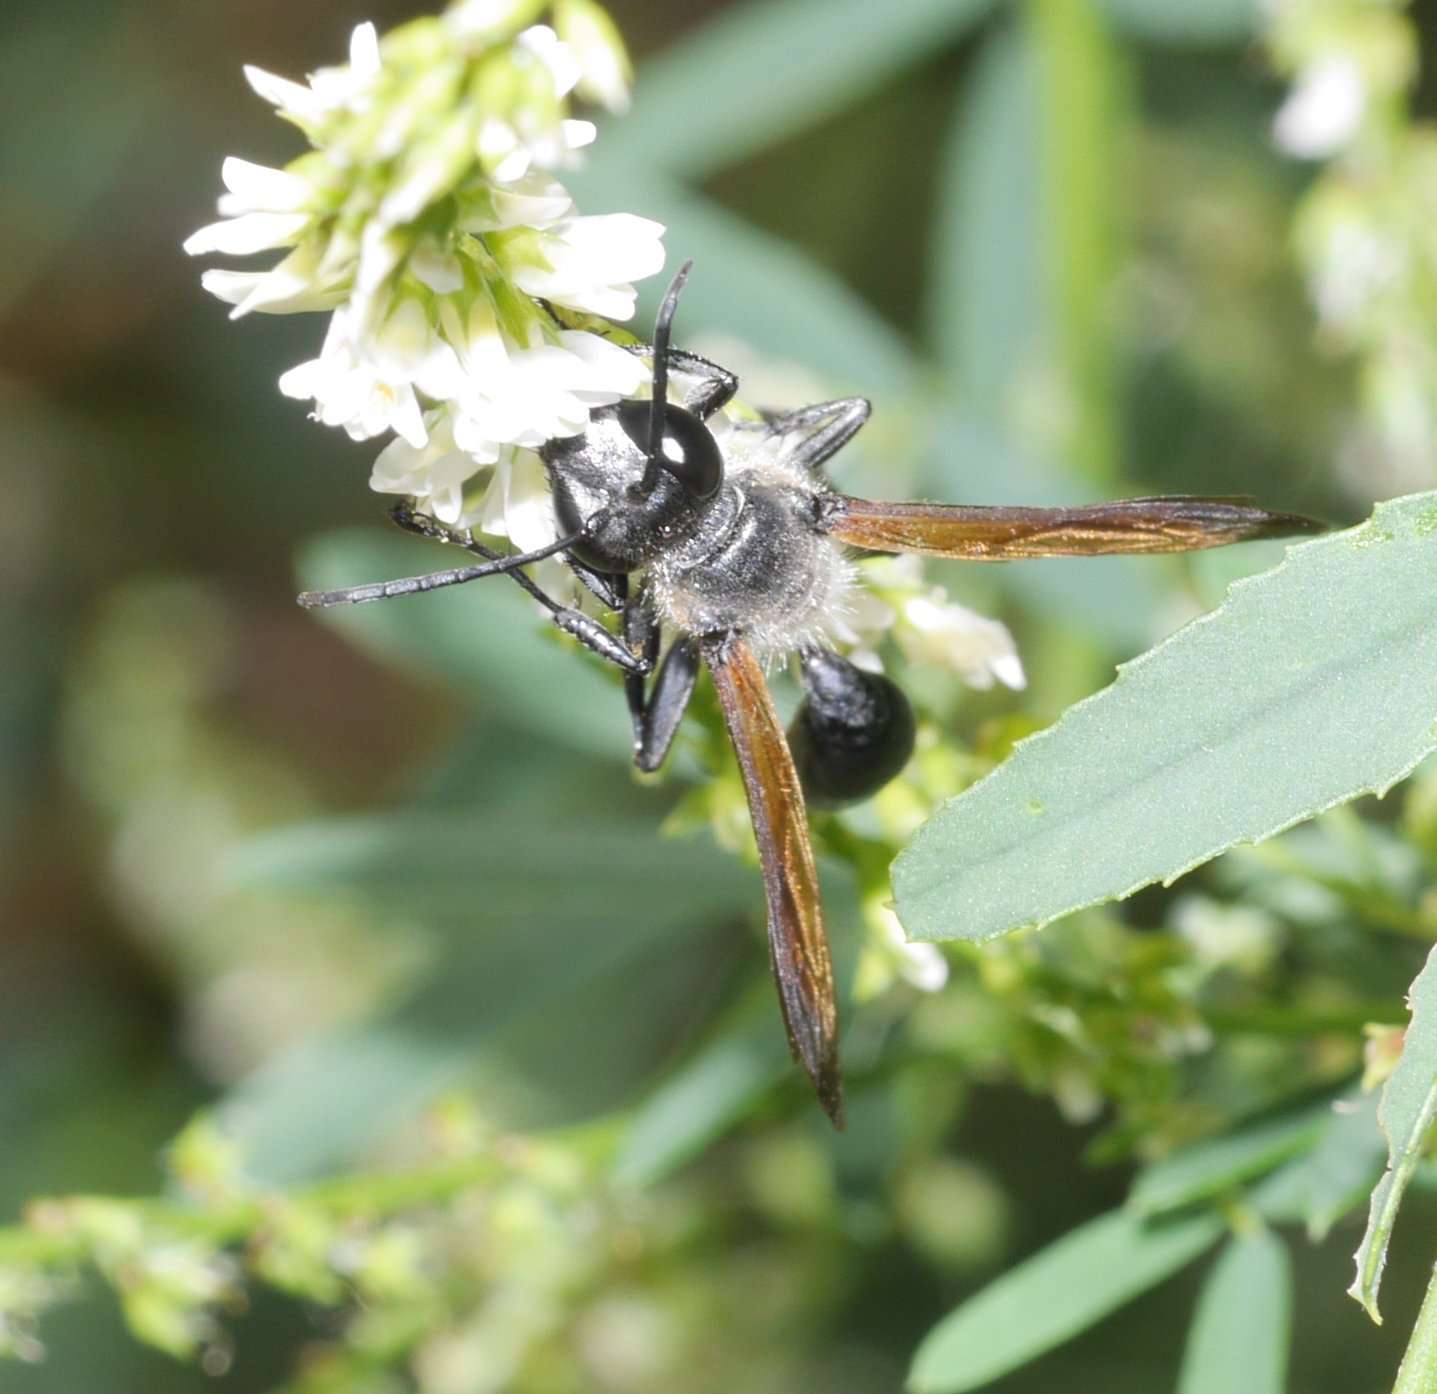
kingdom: Animalia
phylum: Arthropoda
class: Insecta
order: Hymenoptera
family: Sphecidae
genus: Isodontia
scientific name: Isodontia mexicana
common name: Mud dauber
